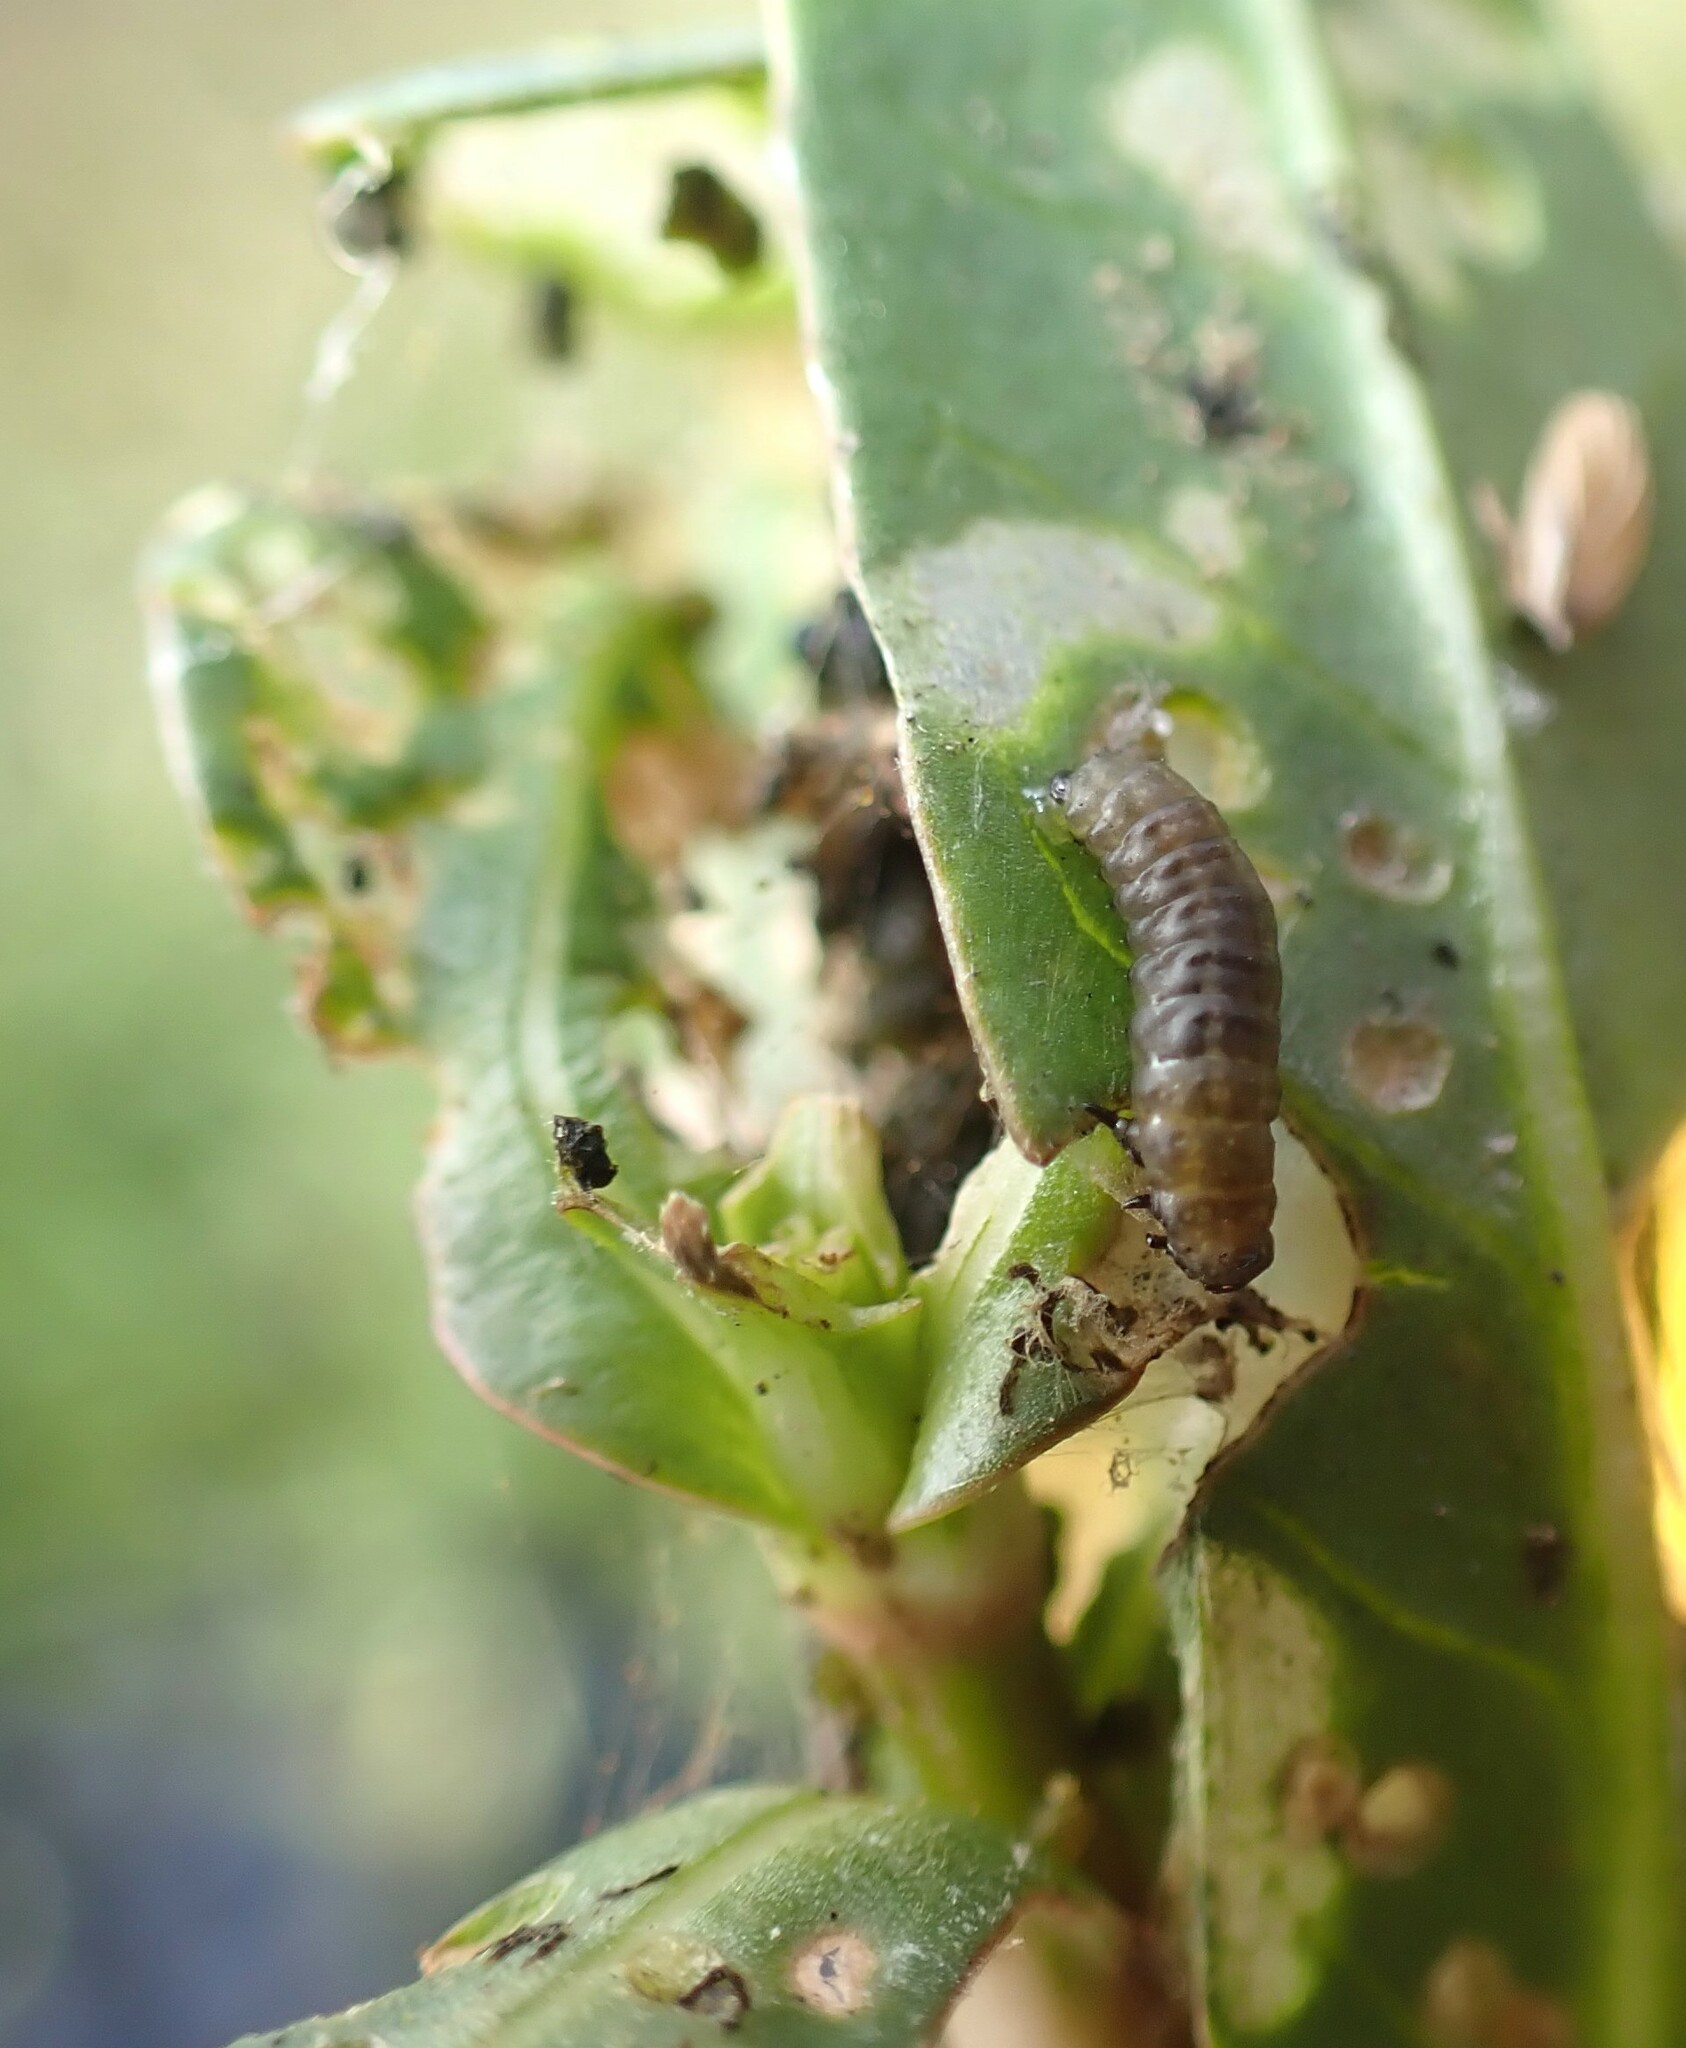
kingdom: Animalia
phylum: Arthropoda
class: Insecta
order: Coleoptera
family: Chrysomelidae
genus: Agasicles
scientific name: Agasicles hygrophila
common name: Alligatorweed flea beetle
